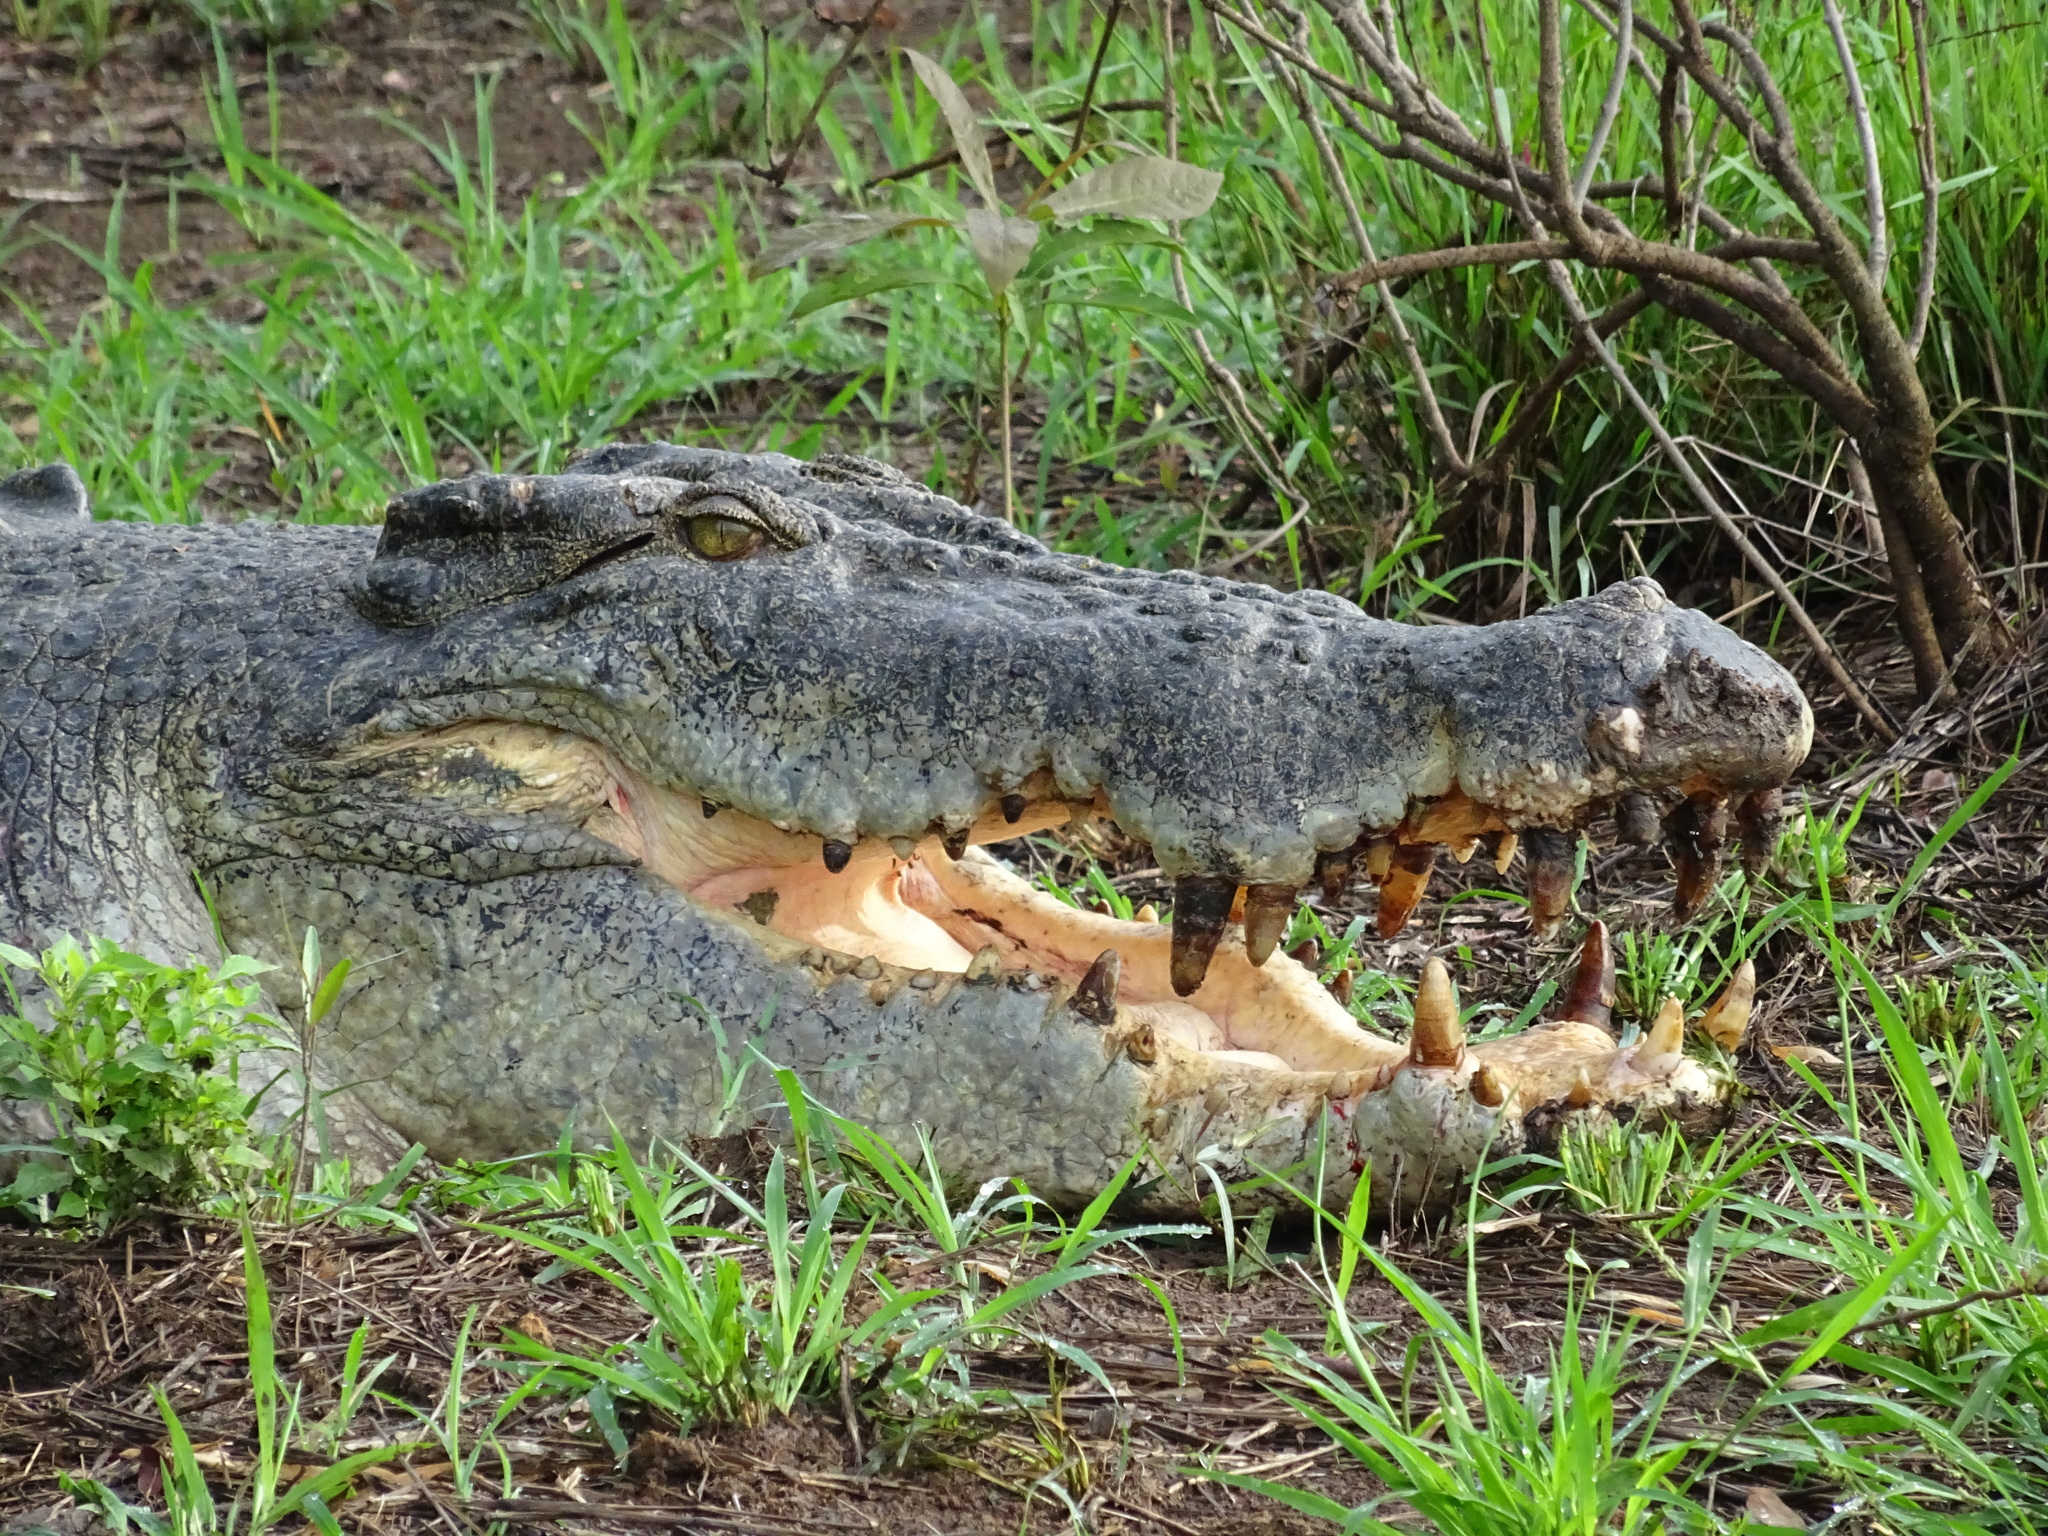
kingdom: Animalia
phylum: Chordata
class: Crocodylia
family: Crocodylidae
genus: Crocodylus
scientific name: Crocodylus porosus
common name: Saltwater crocodile
